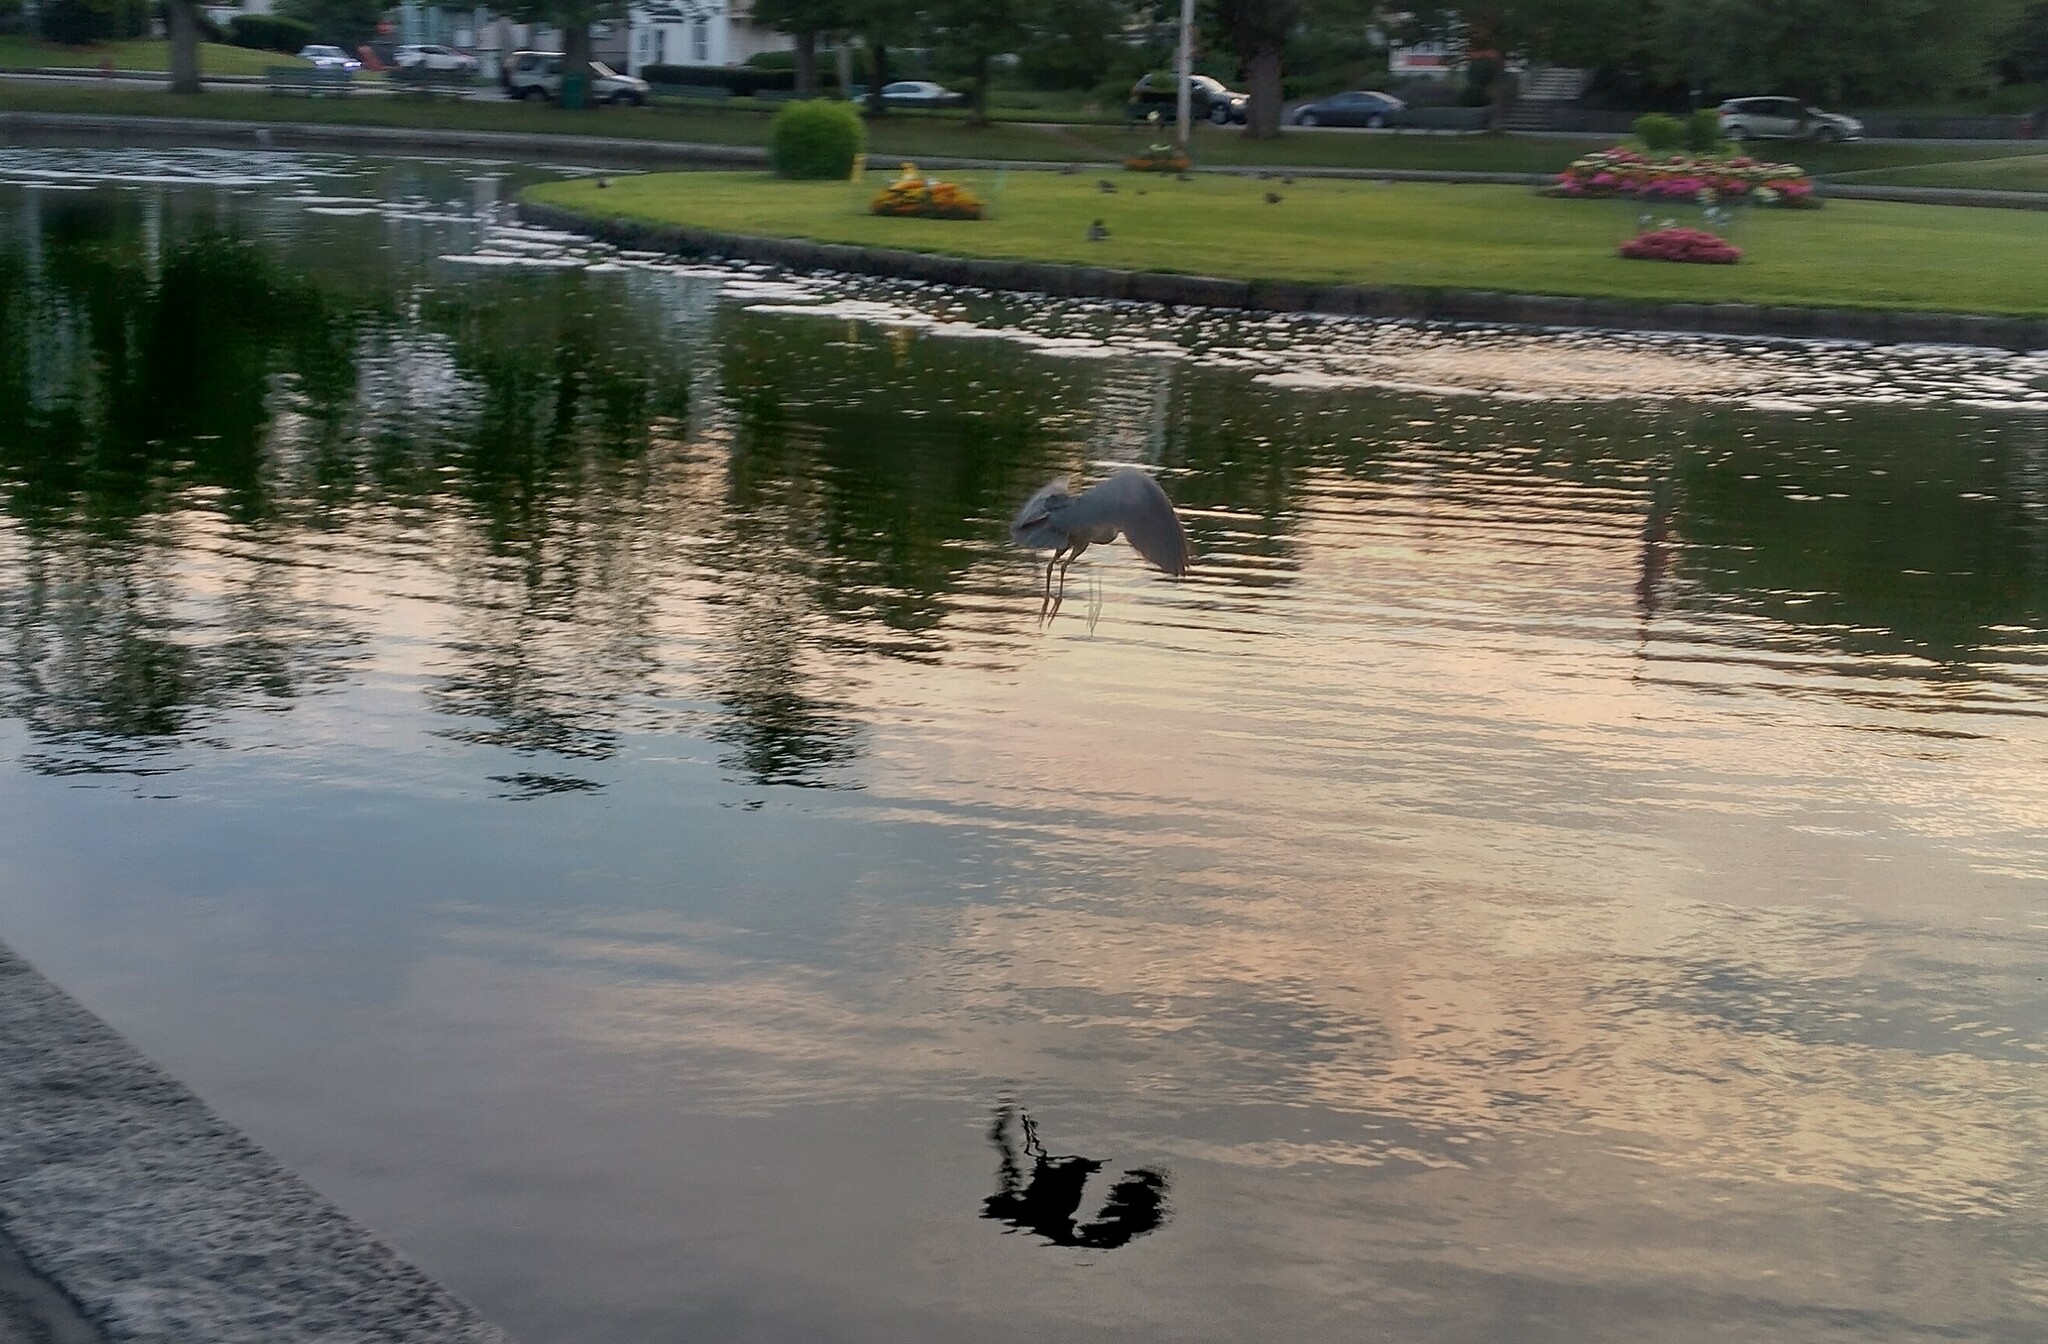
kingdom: Animalia
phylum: Chordata
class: Aves
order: Pelecaniformes
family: Ardeidae
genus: Nycticorax
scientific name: Nycticorax nycticorax
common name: Black-crowned night heron
